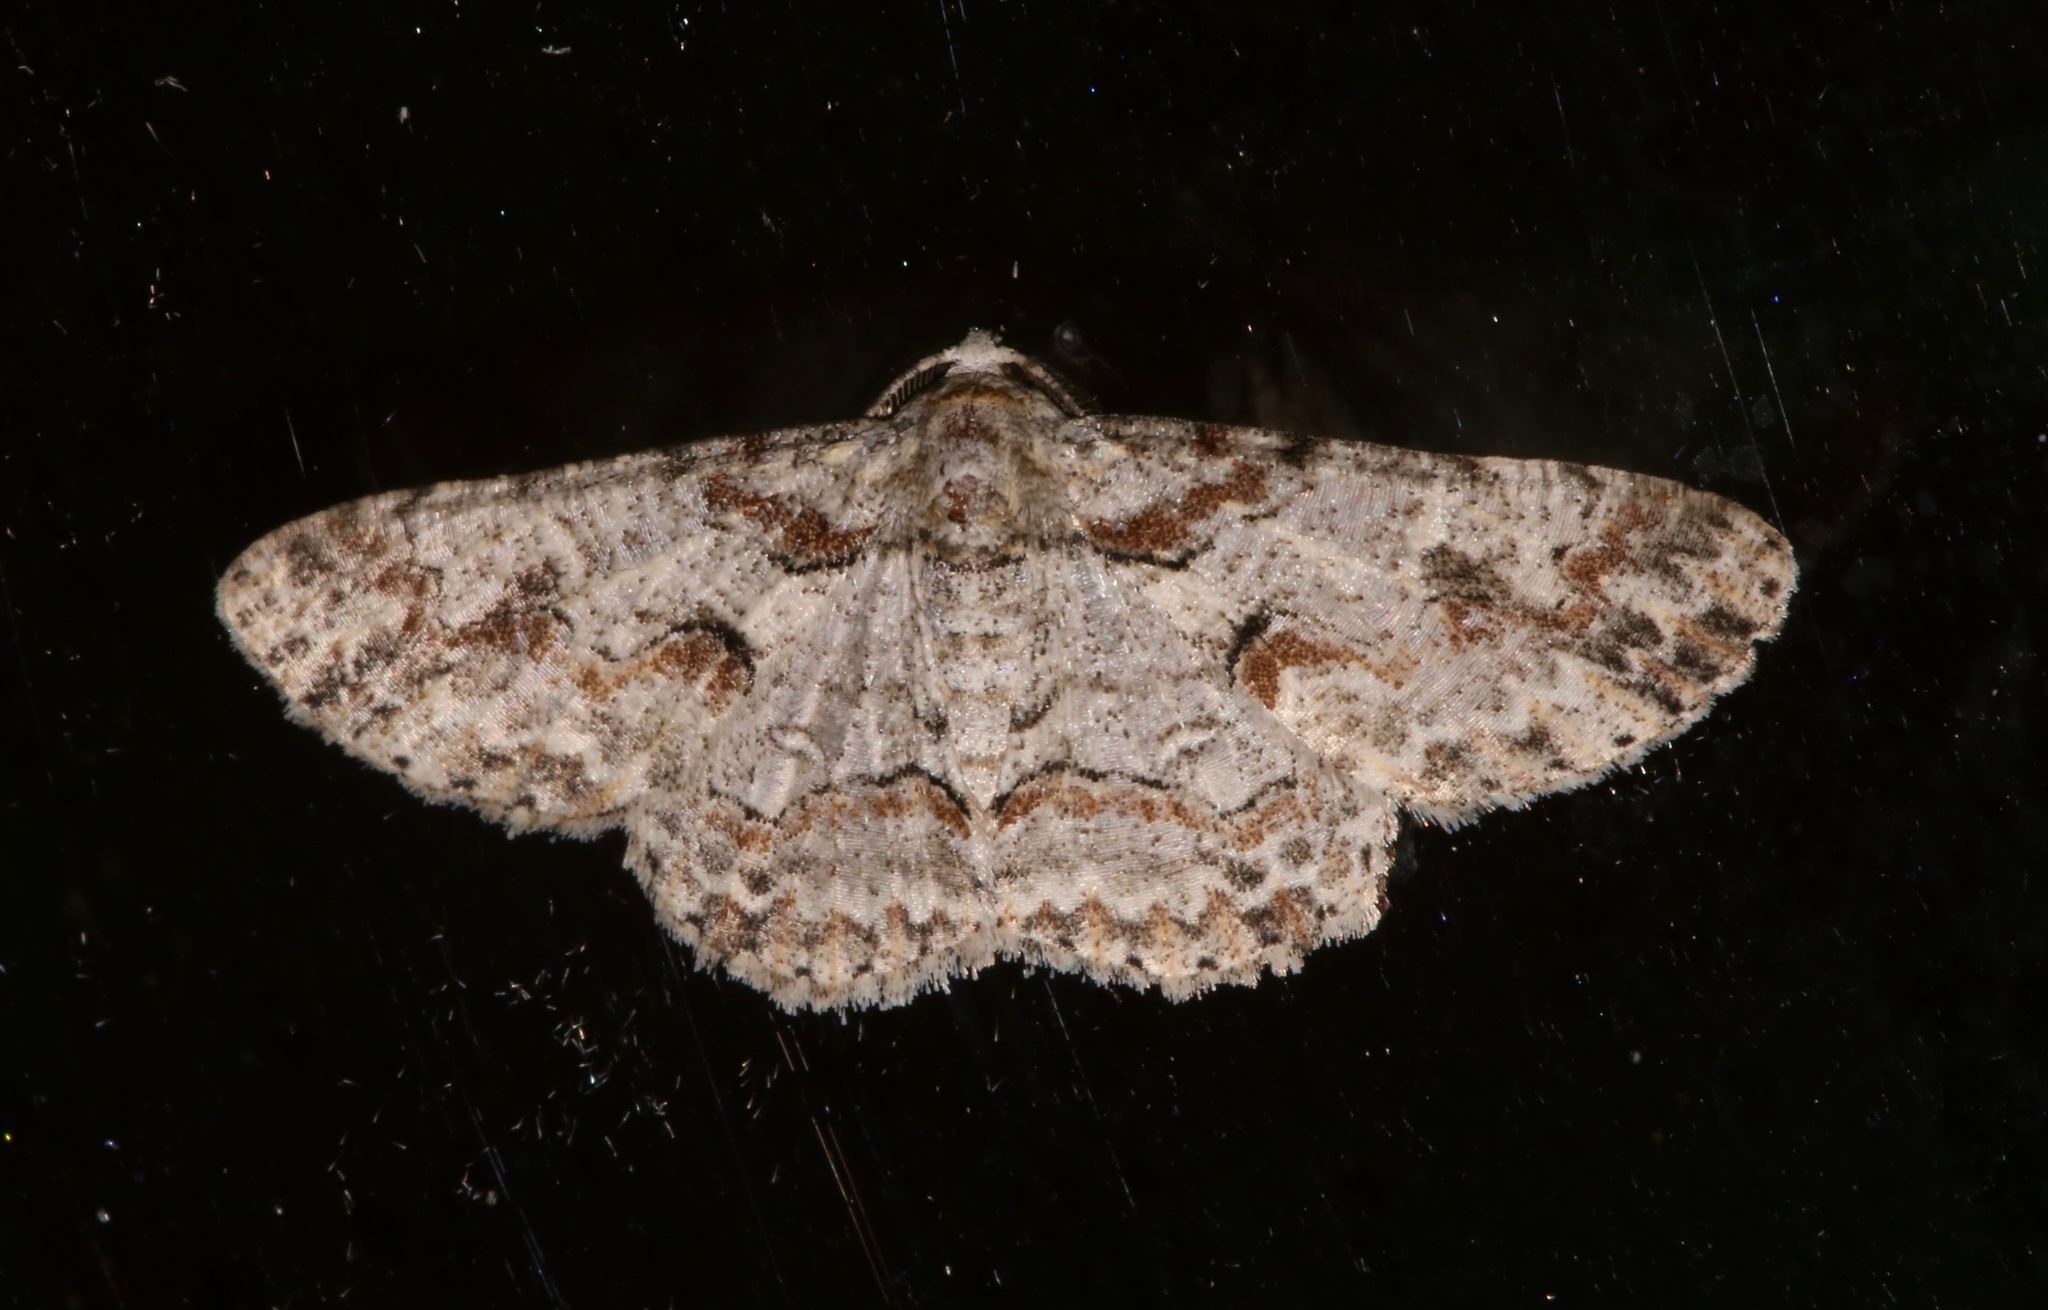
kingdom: Animalia
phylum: Arthropoda
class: Insecta
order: Lepidoptera
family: Geometridae
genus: Iridopsis
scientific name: Iridopsis defectaria
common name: Brown-shaded gray
